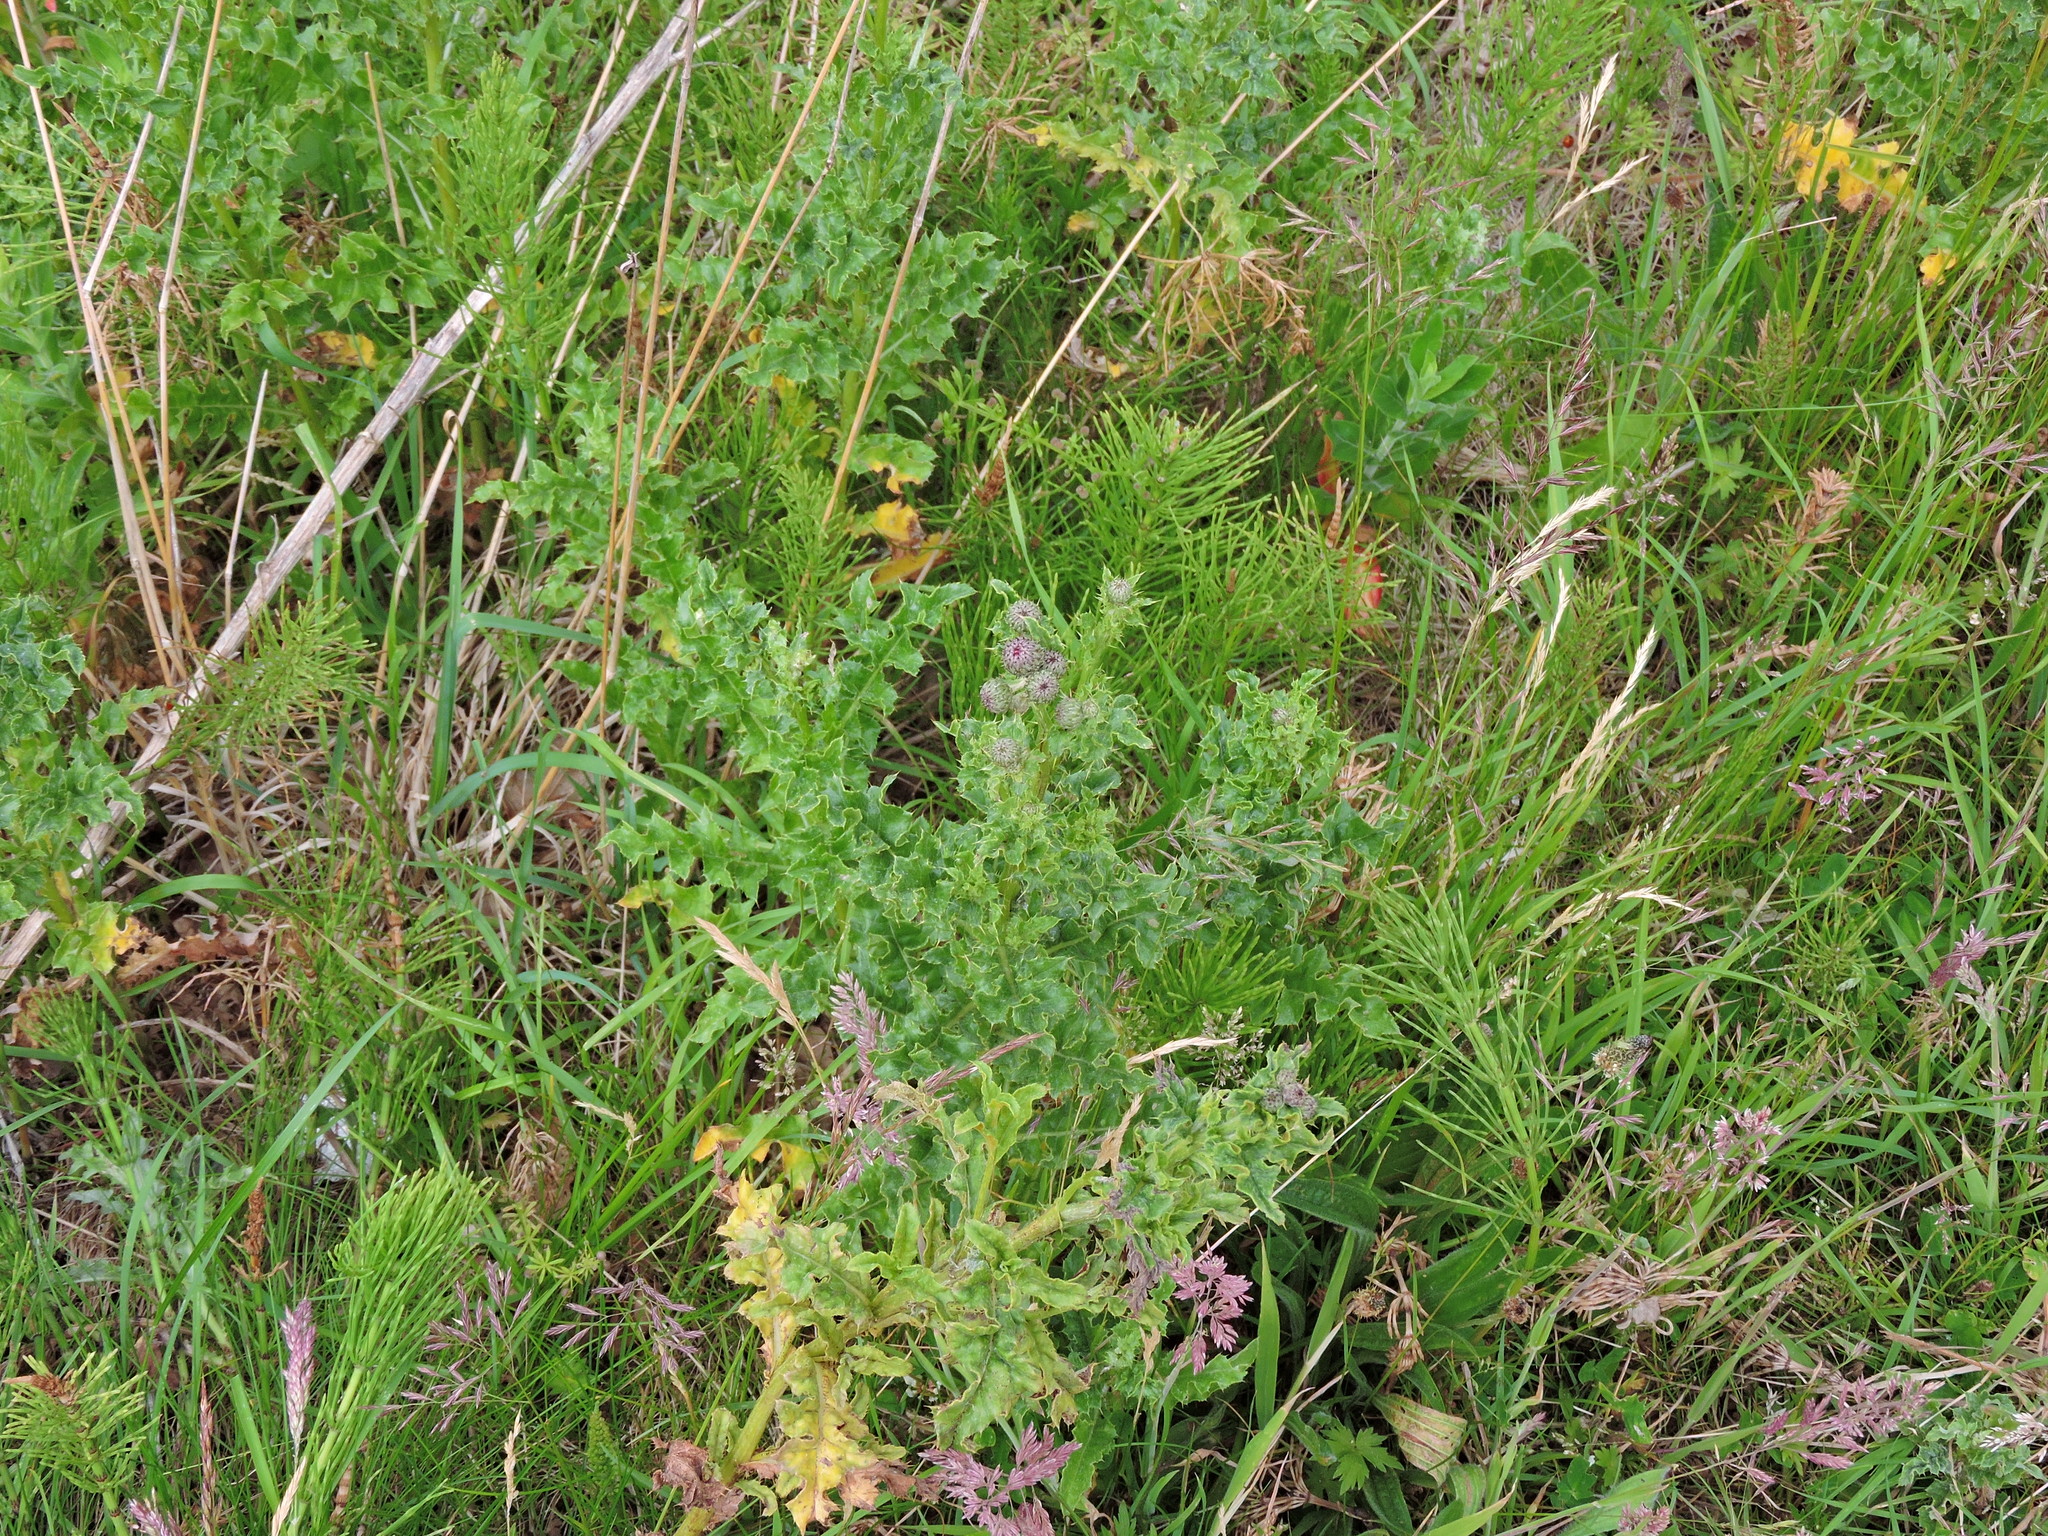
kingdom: Plantae
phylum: Tracheophyta
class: Magnoliopsida
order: Asterales
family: Asteraceae
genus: Cirsium
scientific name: Cirsium arvense
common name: Creeping thistle
